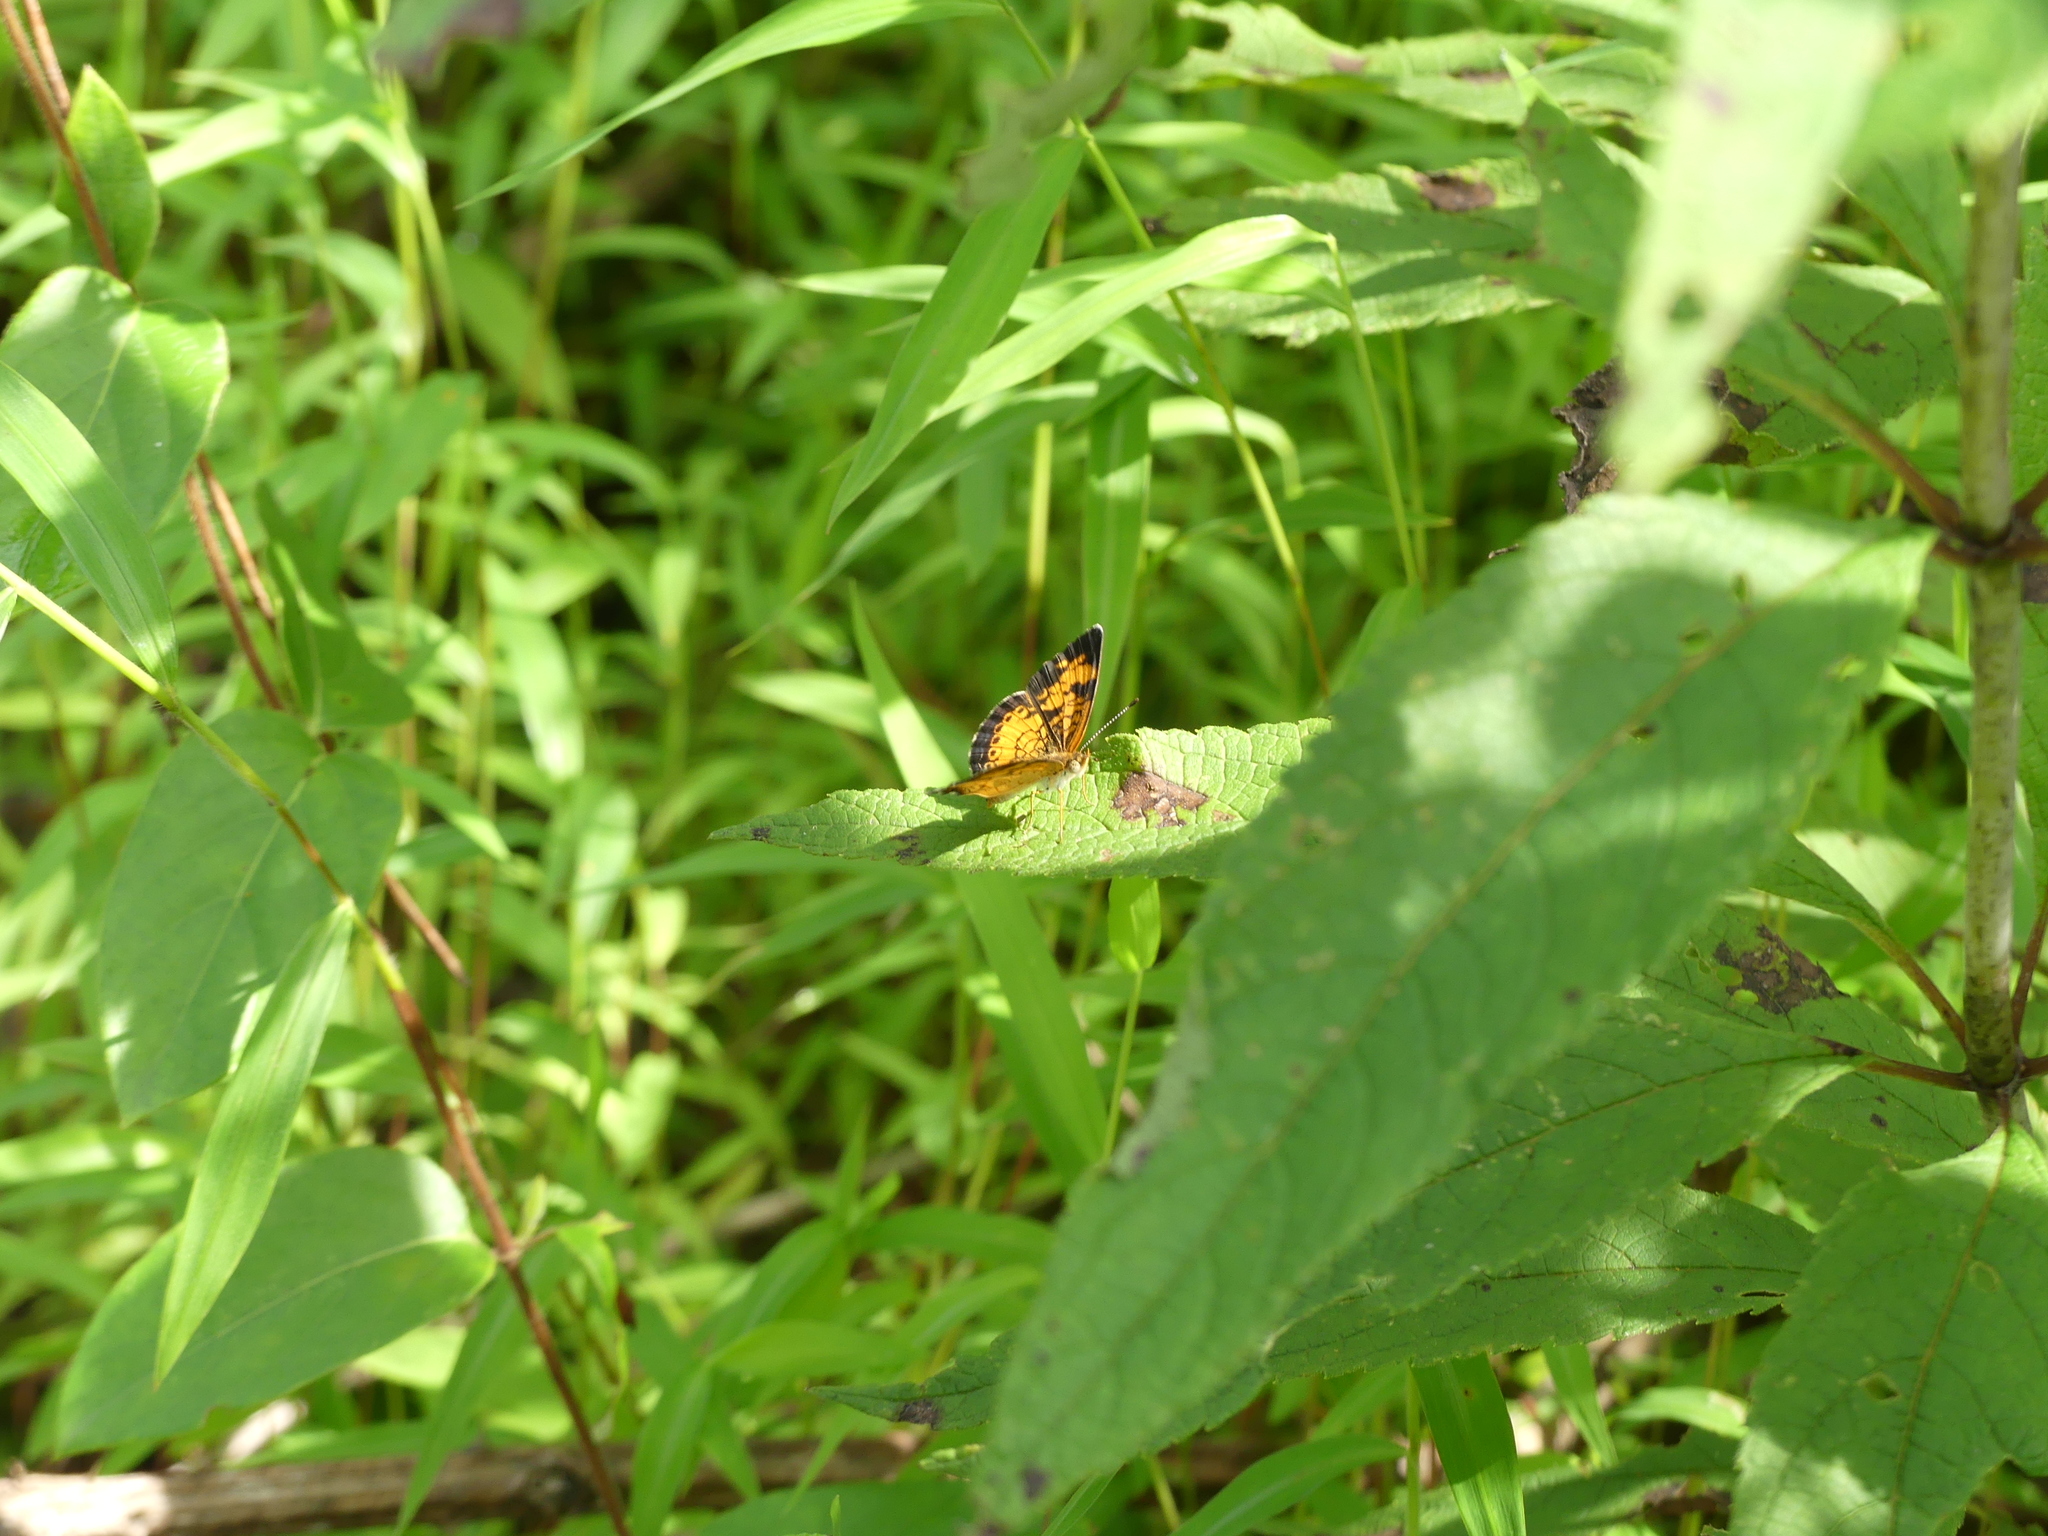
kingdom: Animalia
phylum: Arthropoda
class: Insecta
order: Lepidoptera
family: Nymphalidae
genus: Phyciodes
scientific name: Phyciodes tharos
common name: Pearl crescent
